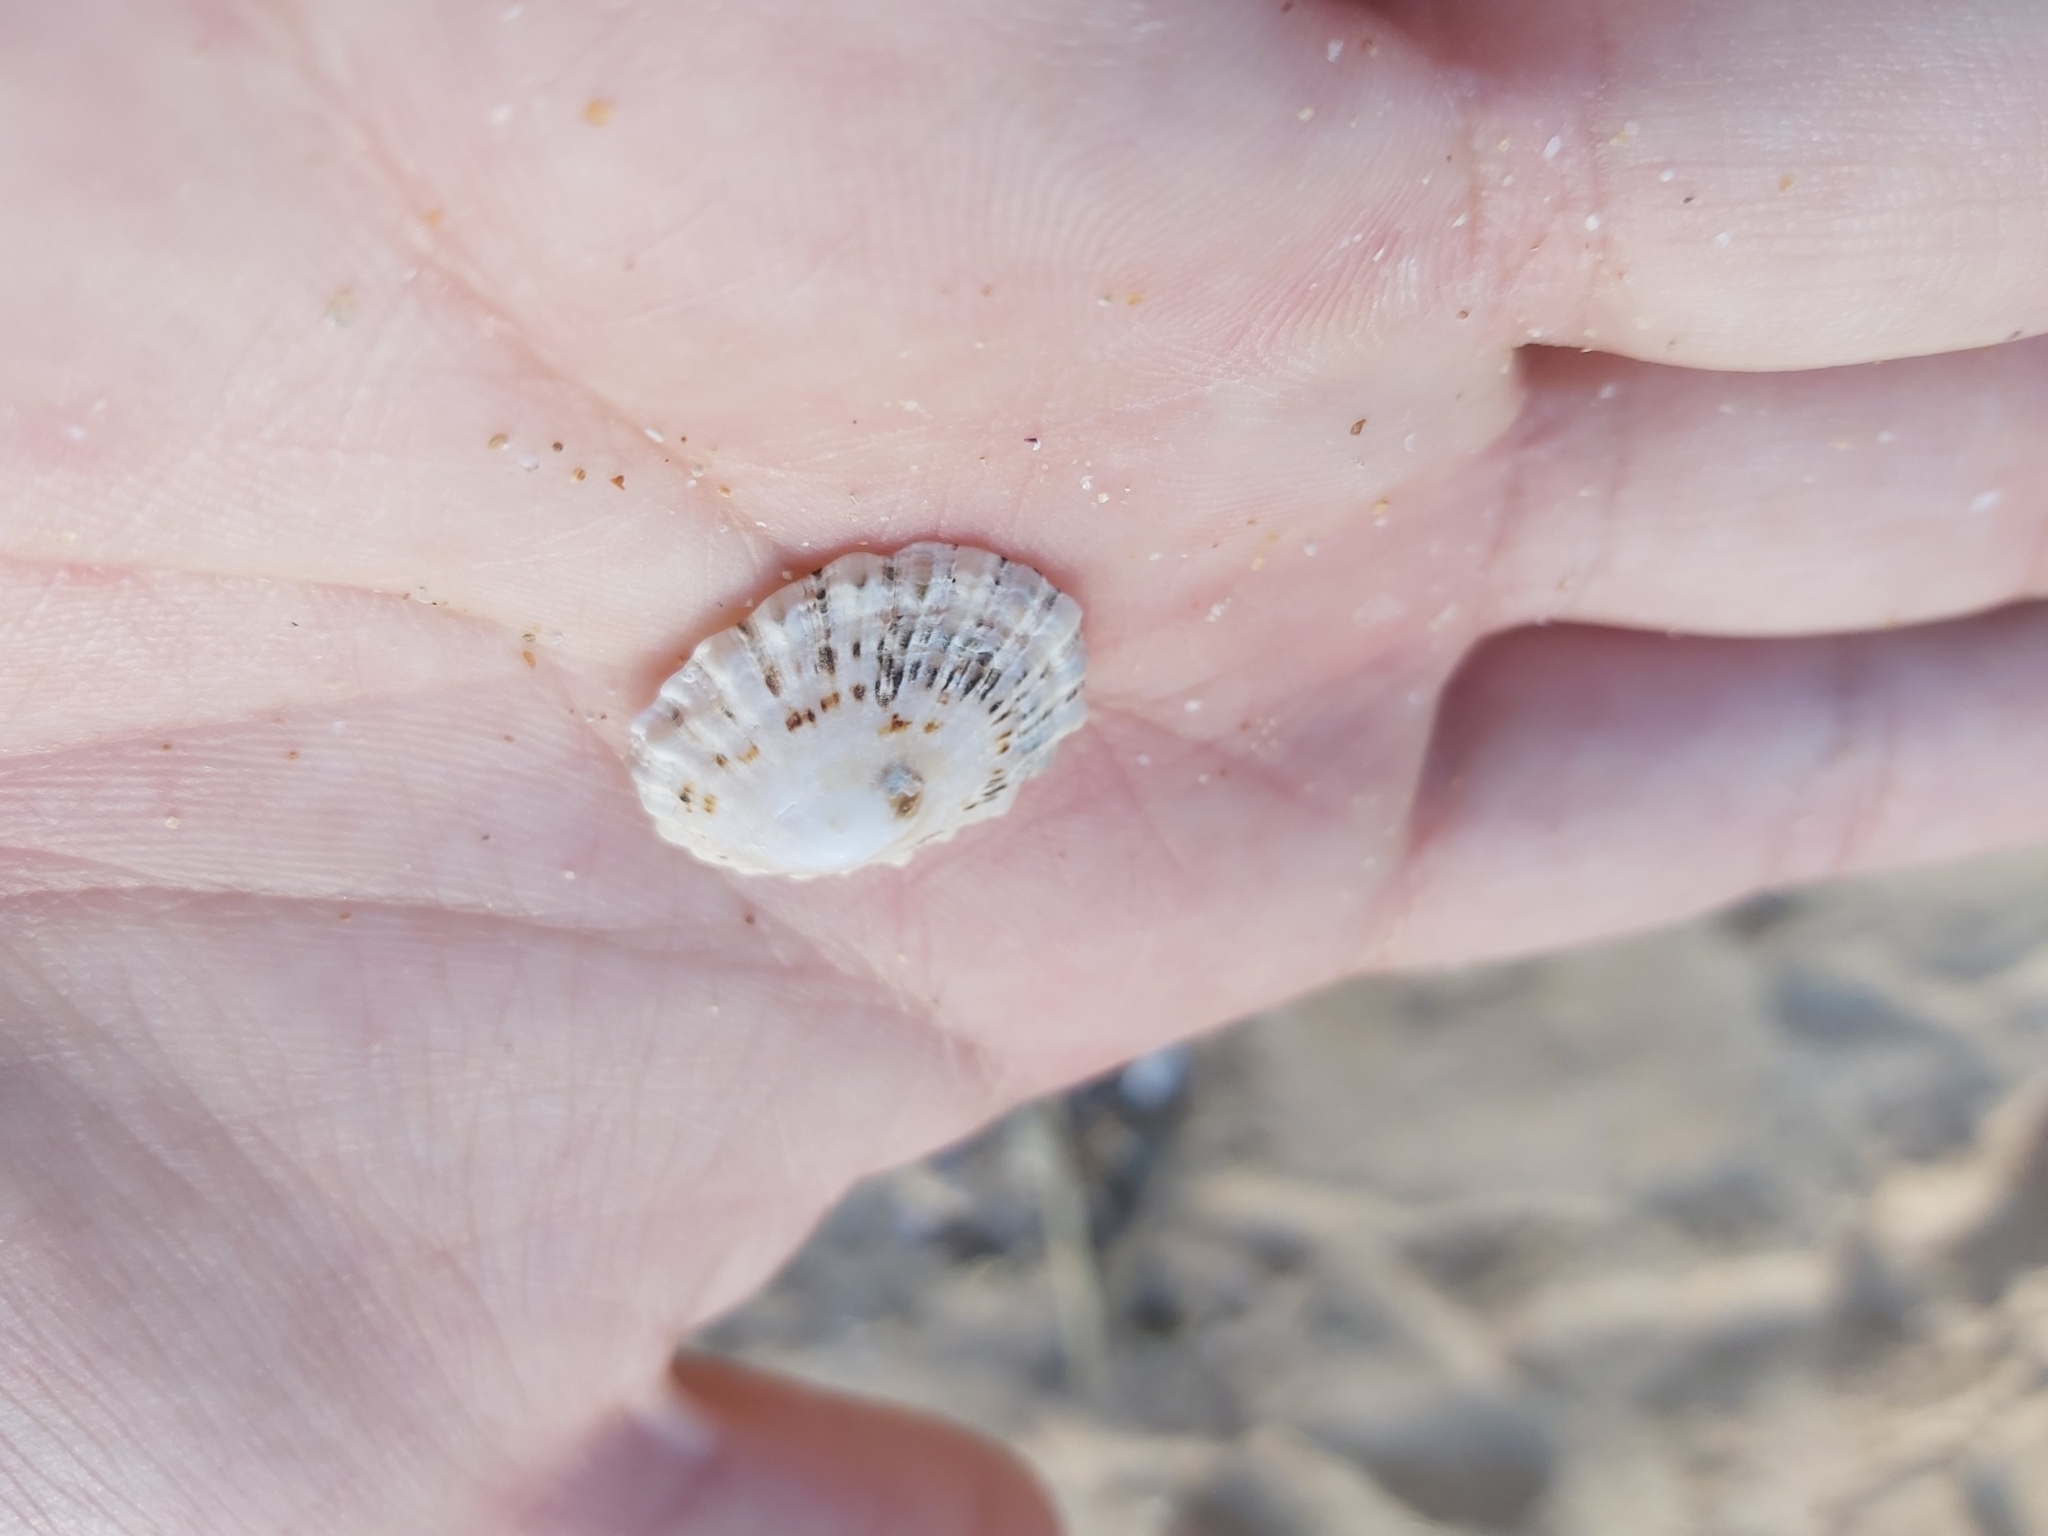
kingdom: Animalia
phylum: Mollusca
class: Gastropoda
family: Patellidae
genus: Scutellastra
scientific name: Scutellastra peronii
